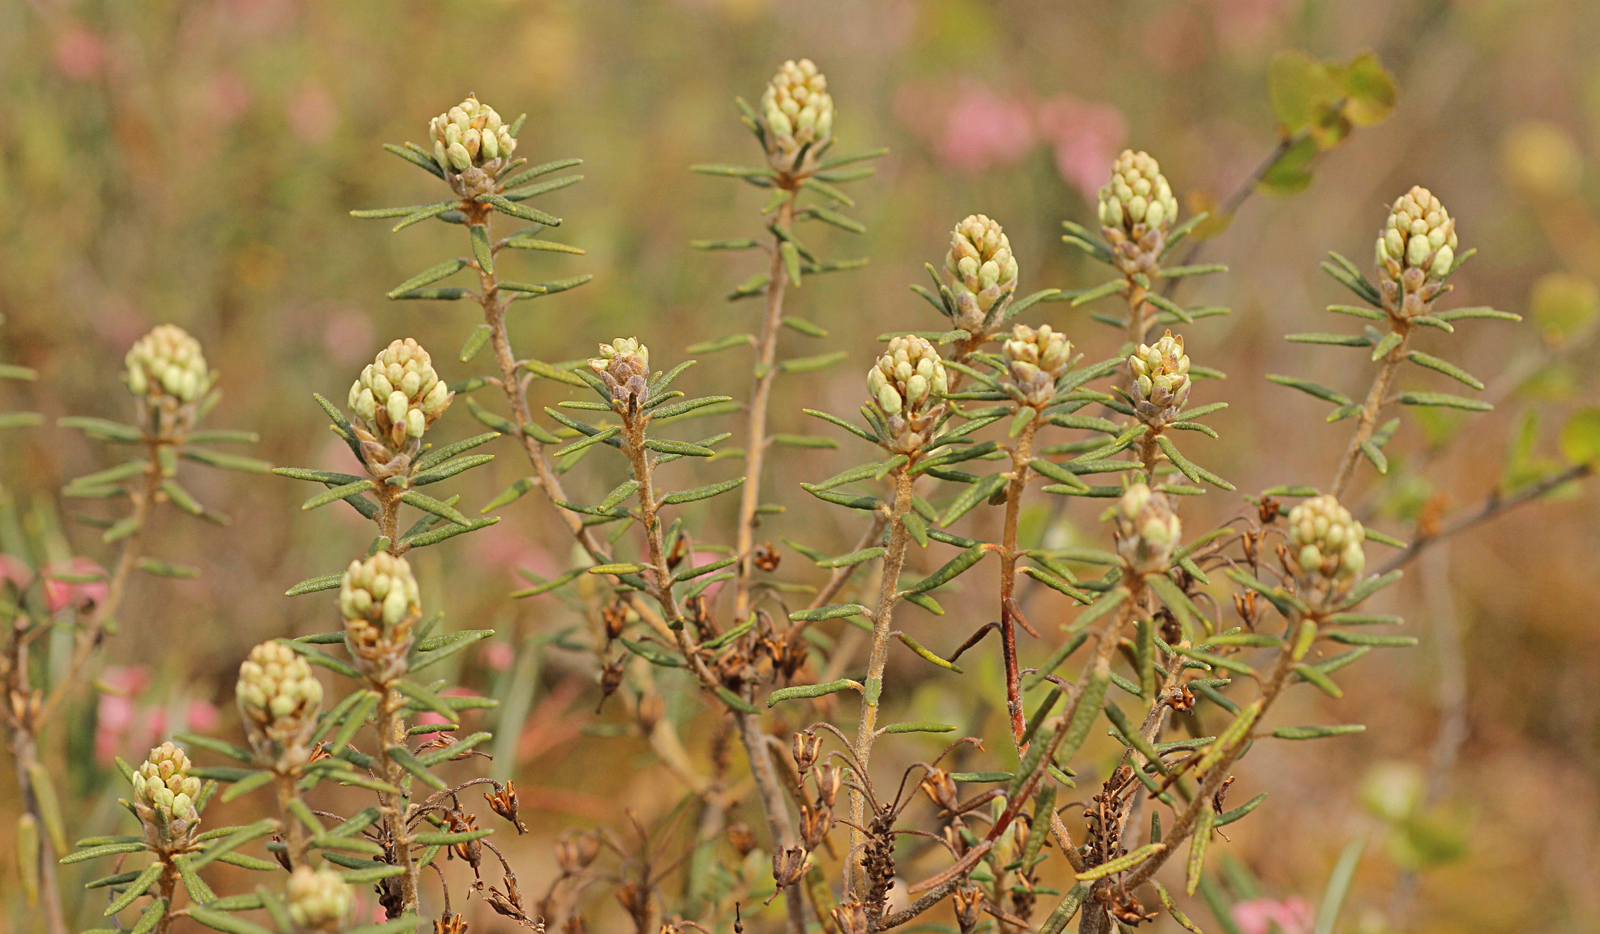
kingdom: Plantae
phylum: Tracheophyta
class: Magnoliopsida
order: Ericales
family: Ericaceae
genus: Rhododendron
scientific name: Rhododendron tomentosum
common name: Marsh labrador tea
